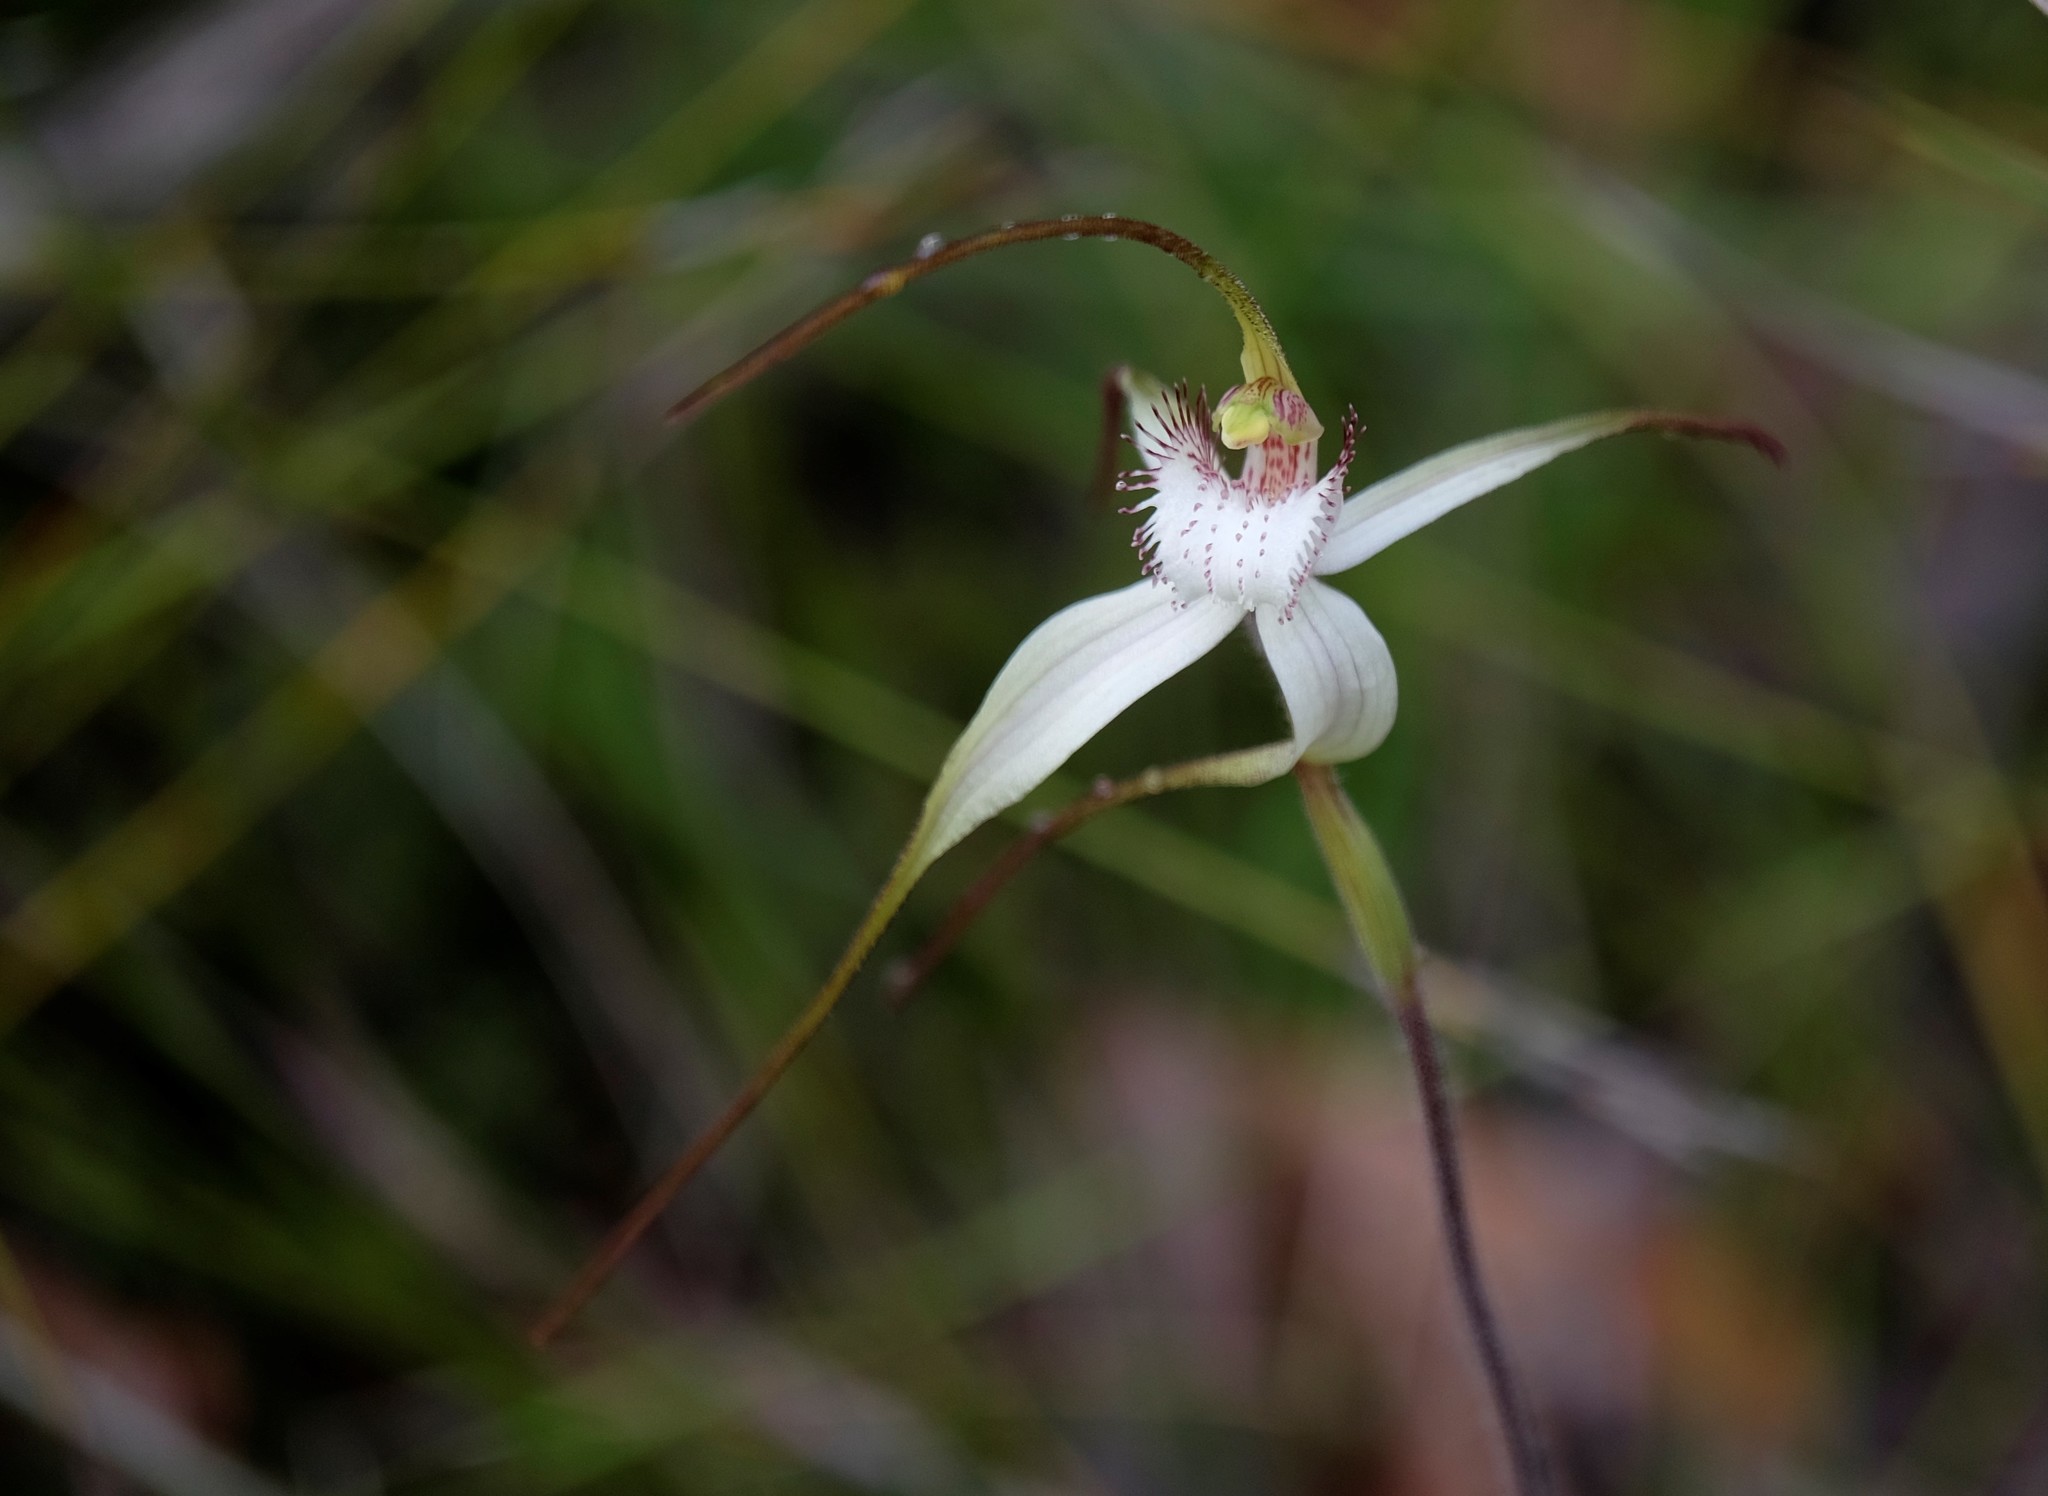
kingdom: Plantae
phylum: Tracheophyta
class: Liliopsida
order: Asparagales
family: Orchidaceae
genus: Caladenia
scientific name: Caladenia venusta
